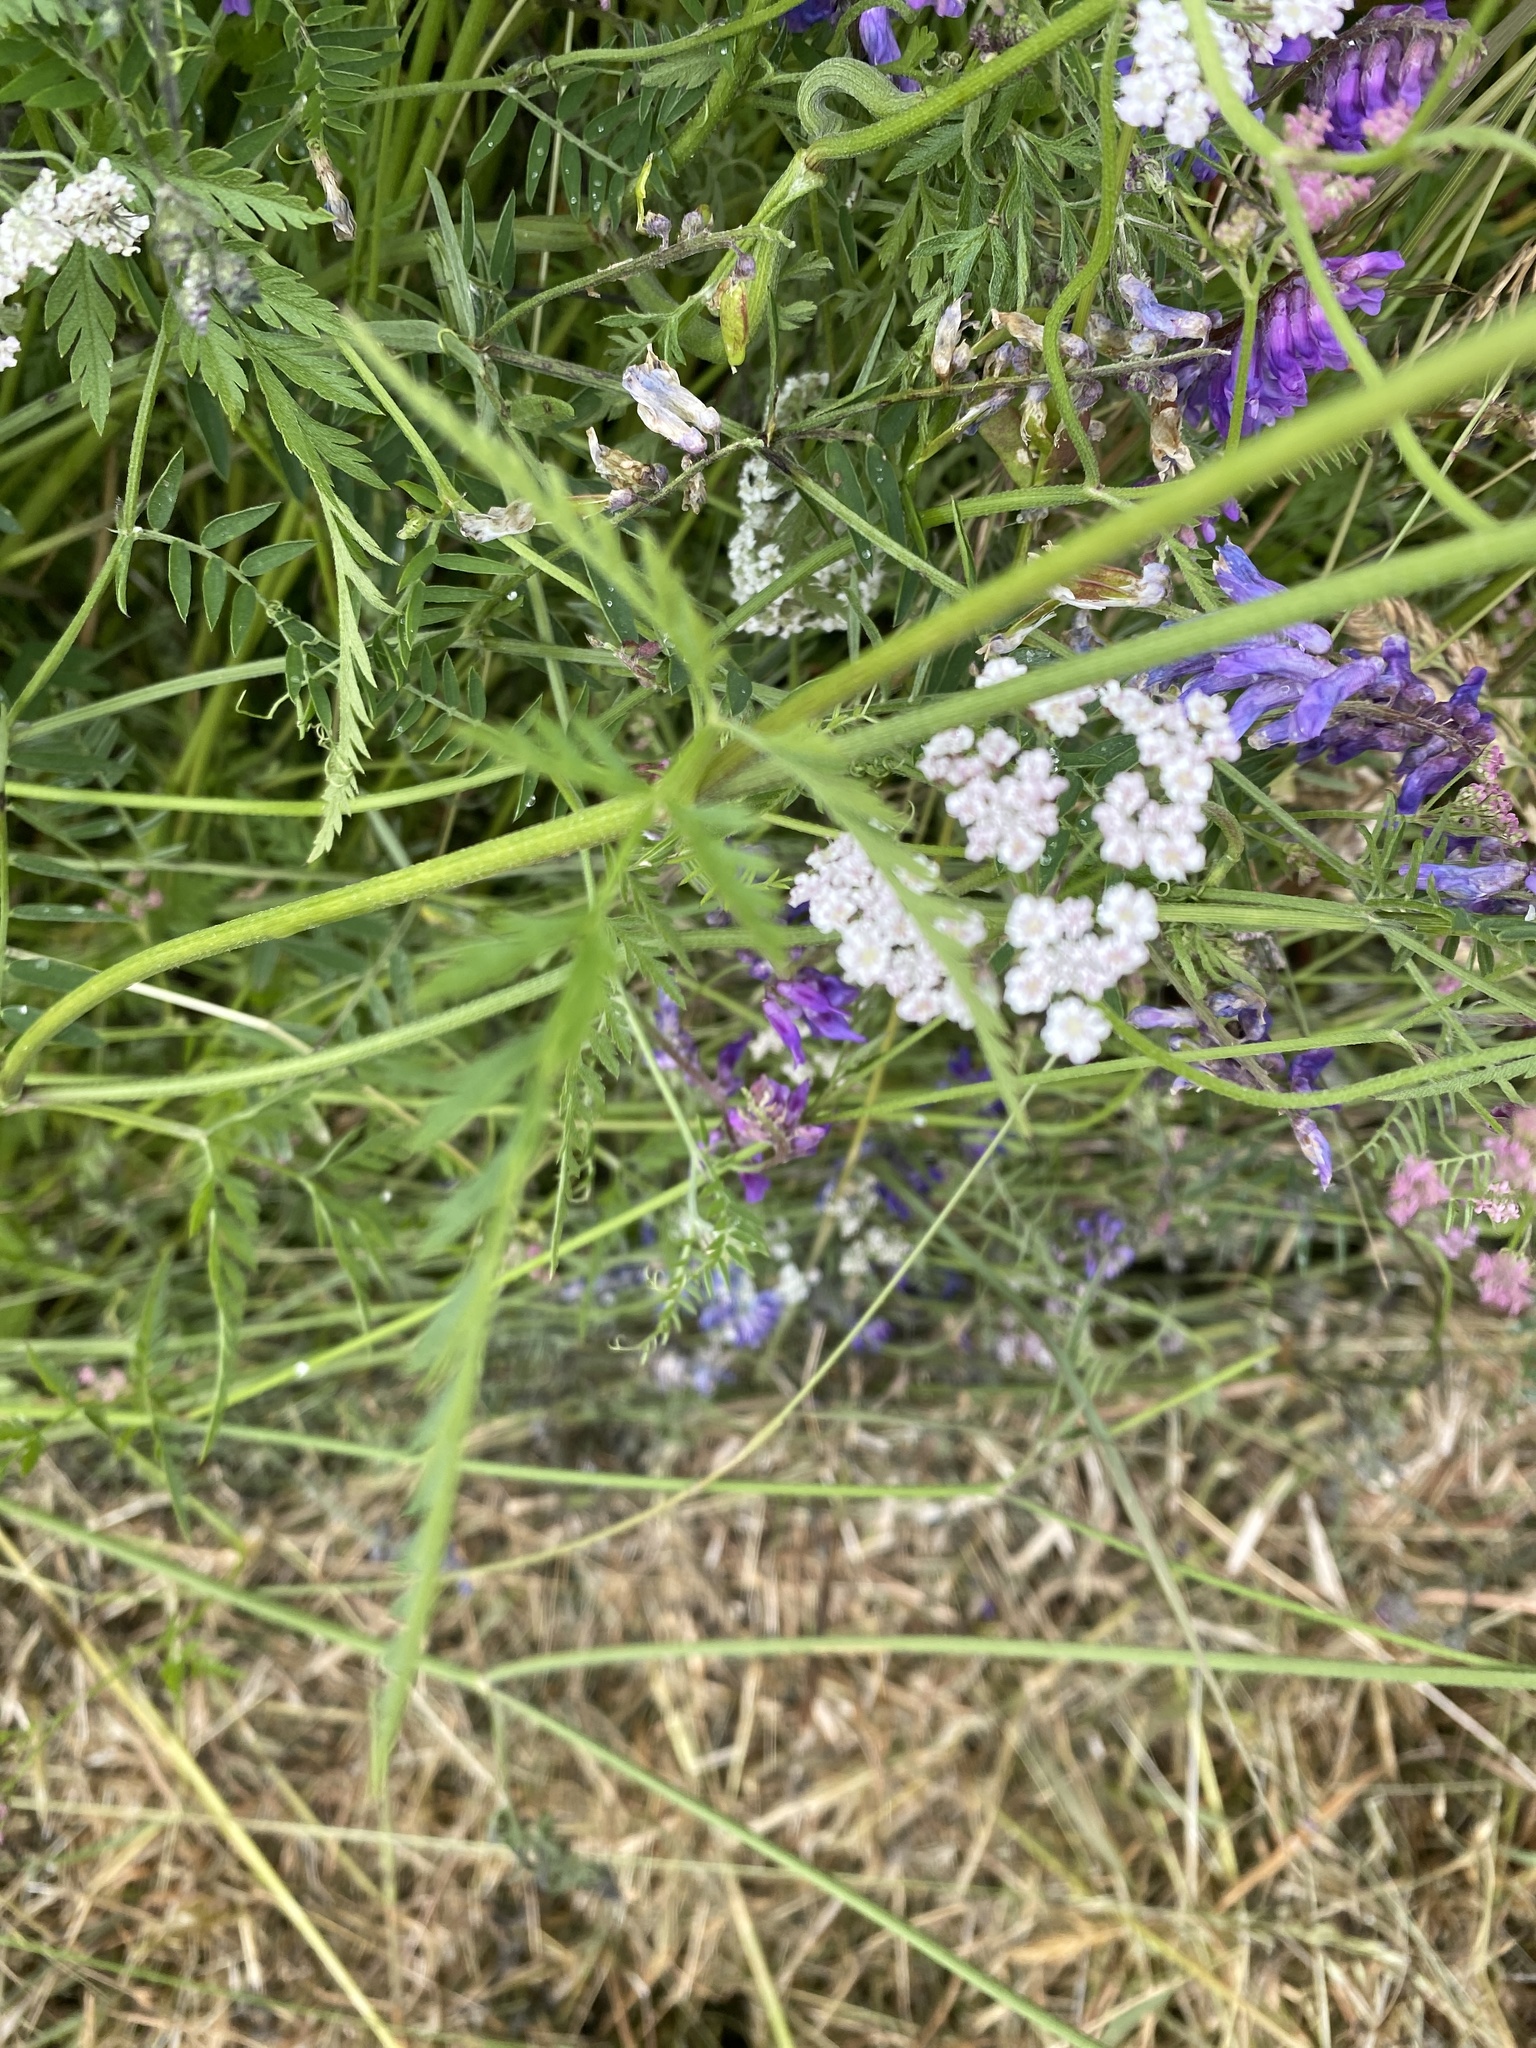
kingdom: Plantae
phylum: Tracheophyta
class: Magnoliopsida
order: Apiales
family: Apiaceae
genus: Torilis
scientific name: Torilis japonica
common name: Upright hedge-parsley
